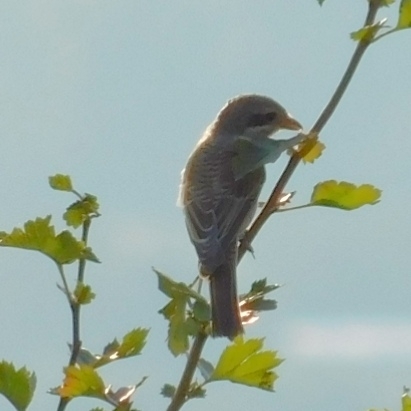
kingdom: Animalia
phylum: Chordata
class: Aves
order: Passeriformes
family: Laniidae
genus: Lanius
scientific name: Lanius collurio
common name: Red-backed shrike
